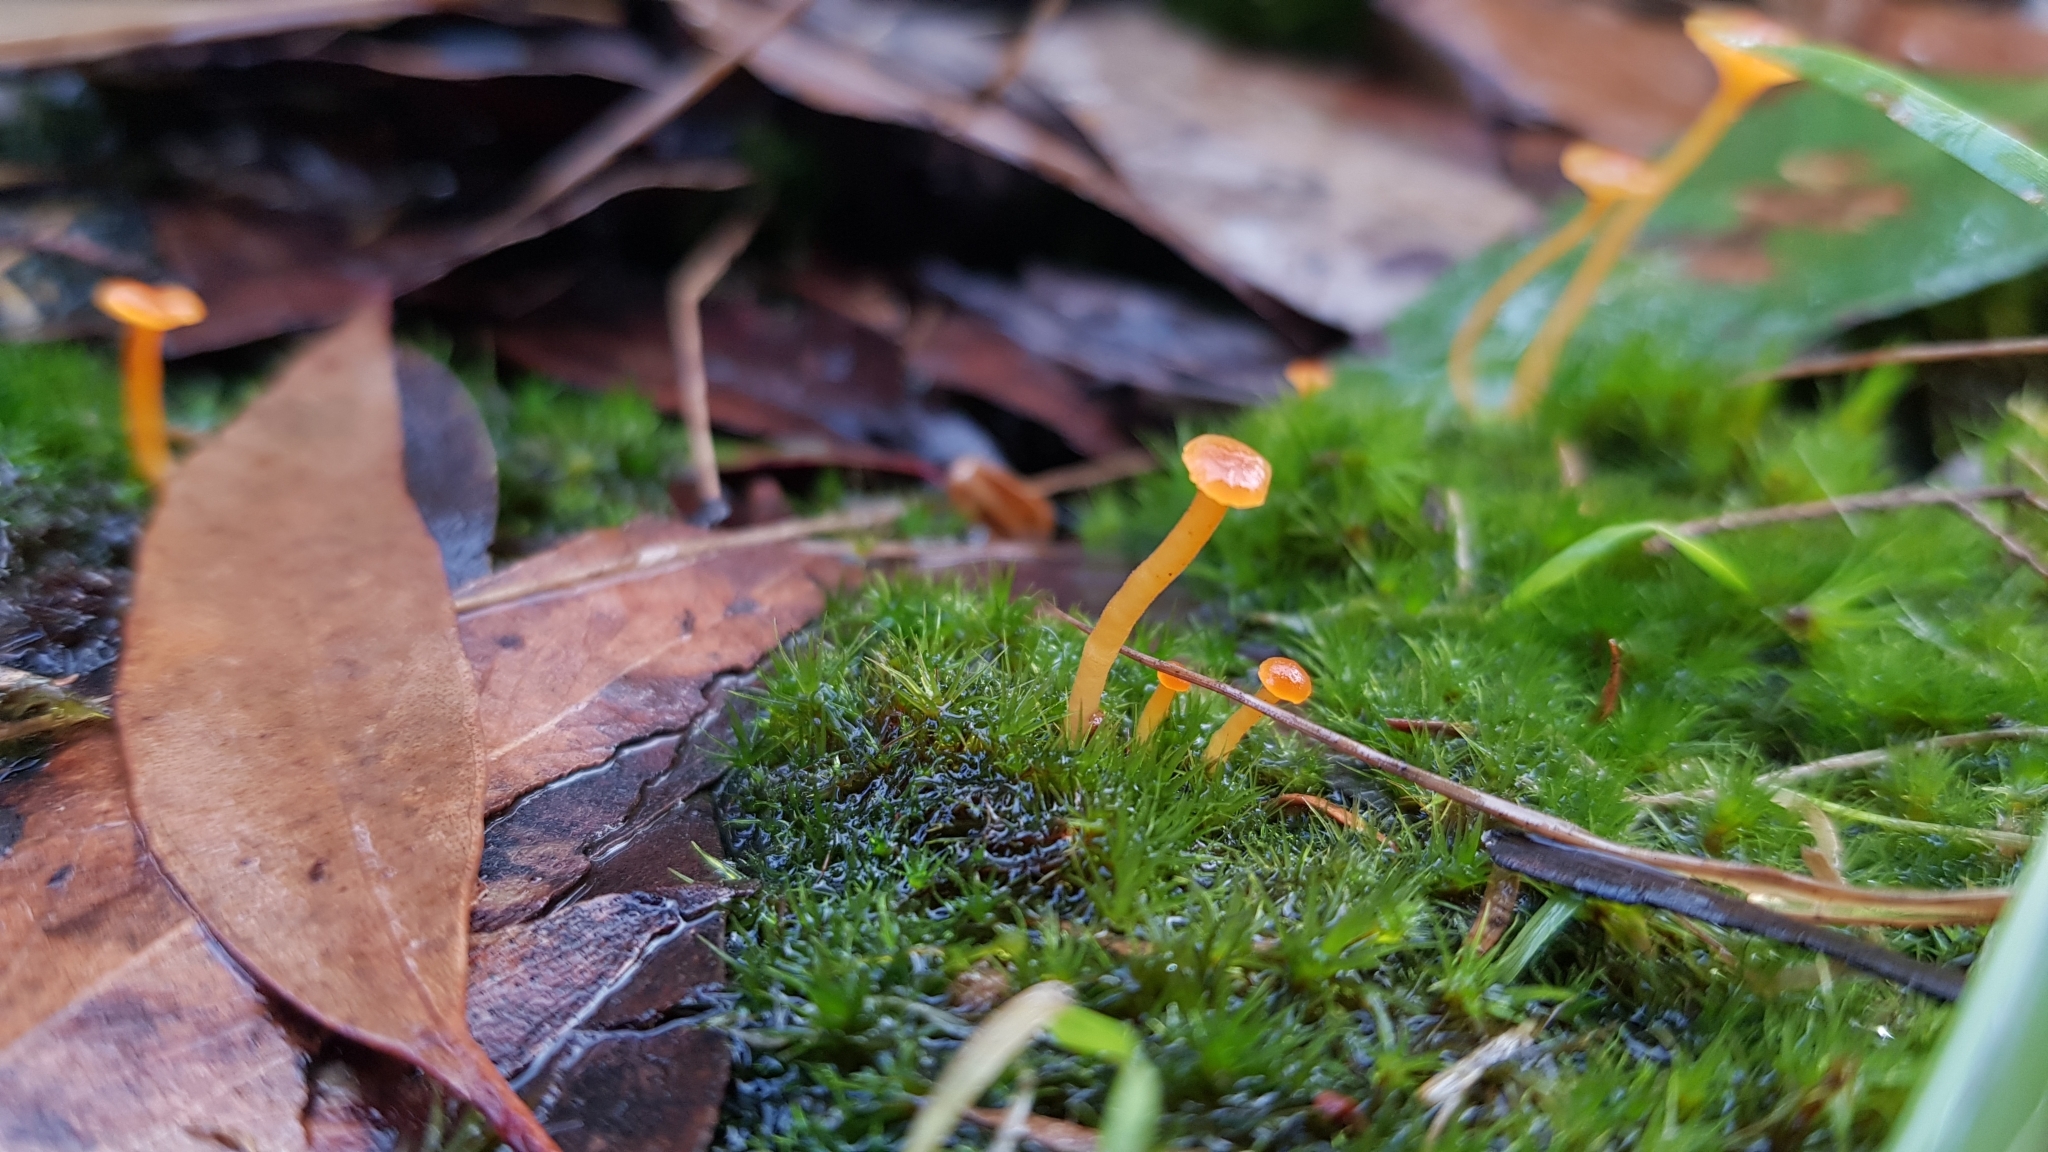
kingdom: Fungi
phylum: Basidiomycota
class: Agaricomycetes
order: Hymenochaetales
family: Rickenellaceae
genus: Rickenella
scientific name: Rickenella fibula
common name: Orange mosscap
